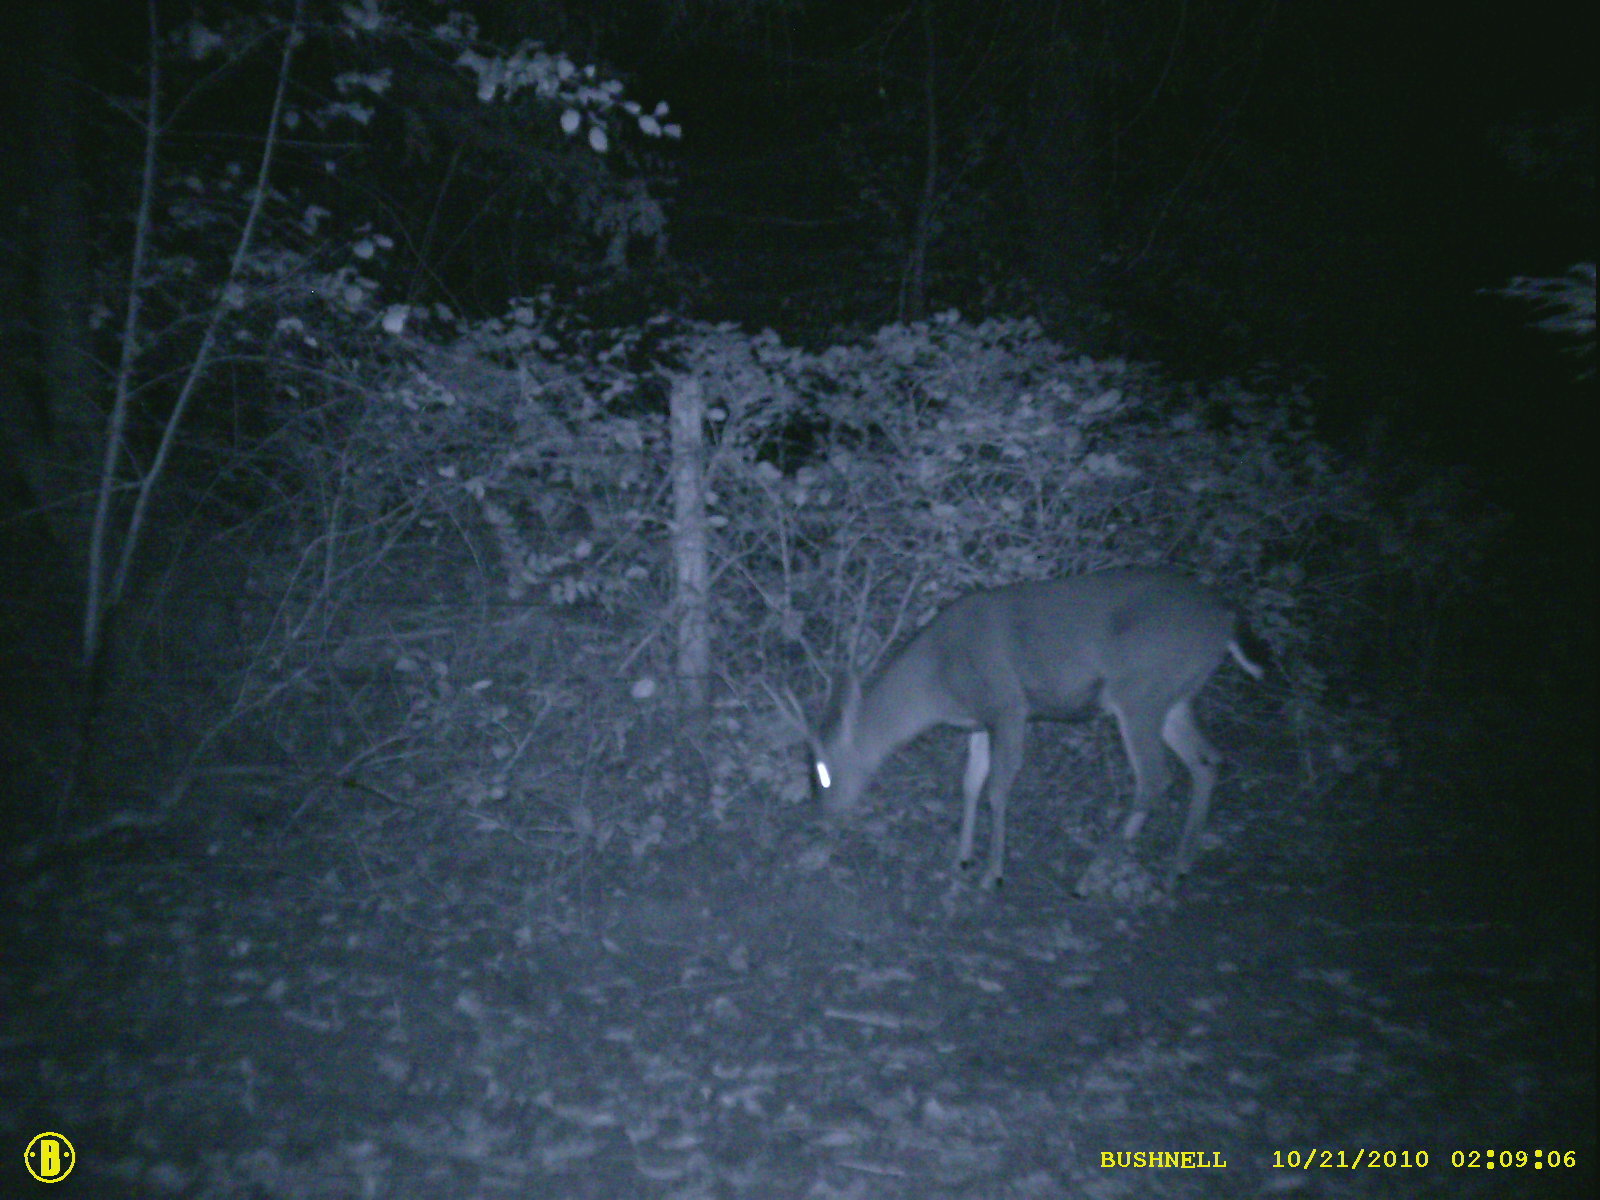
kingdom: Animalia
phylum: Chordata
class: Mammalia
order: Artiodactyla
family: Cervidae
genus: Odocoileus
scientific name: Odocoileus hemionus
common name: Mule deer
